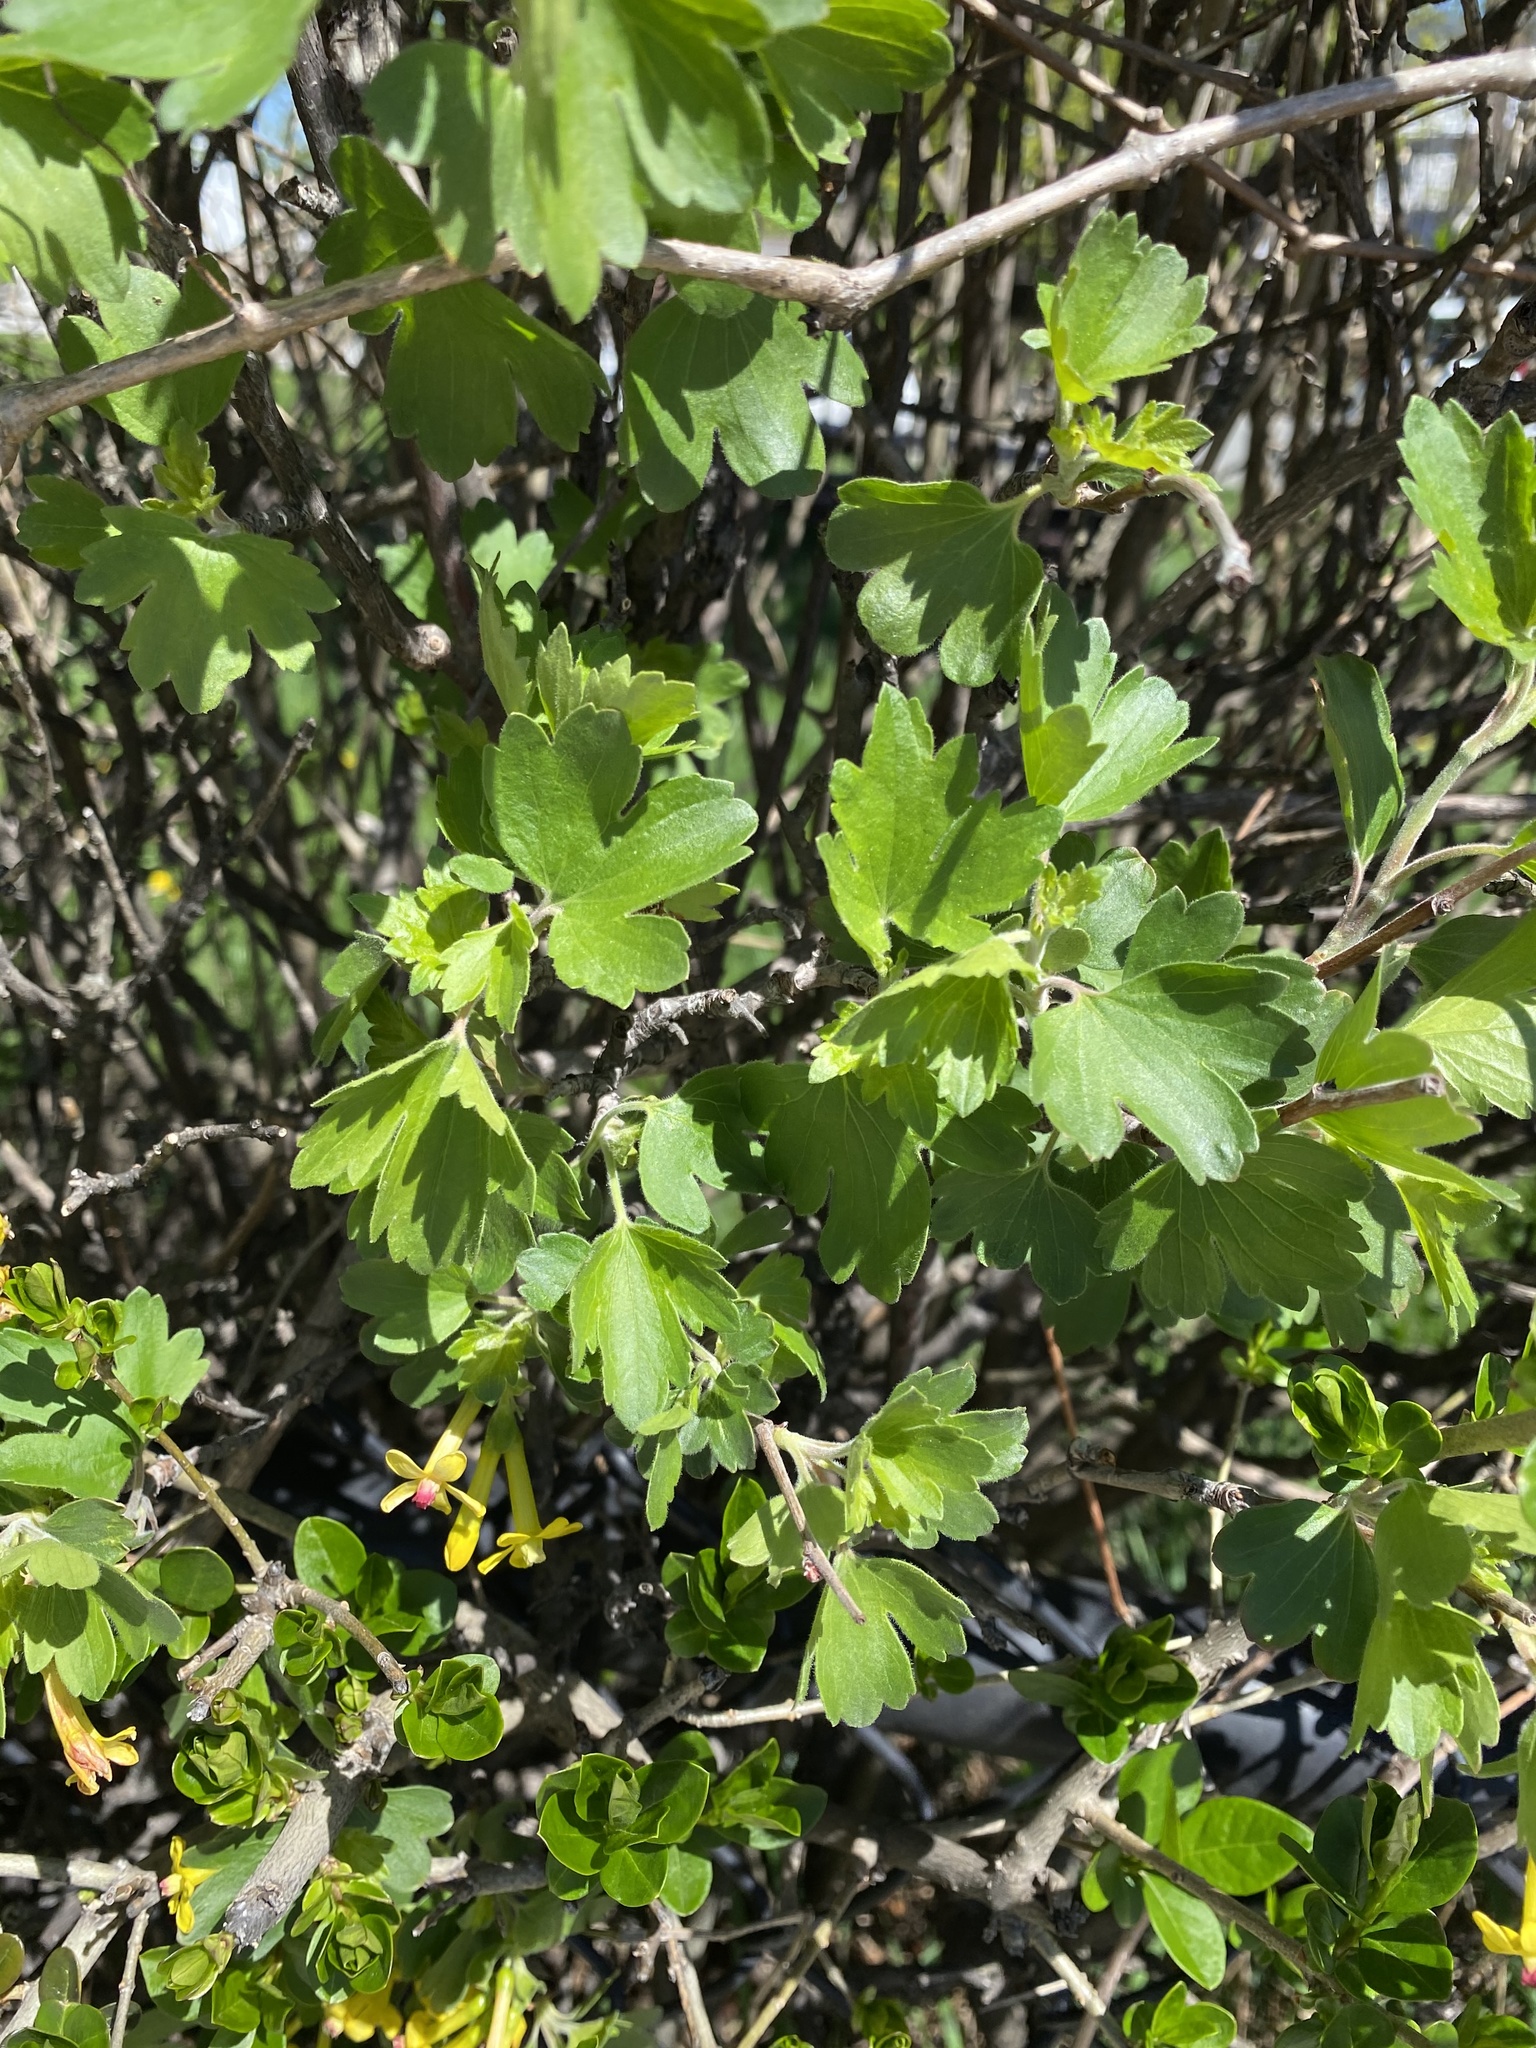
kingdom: Plantae
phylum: Tracheophyta
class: Magnoliopsida
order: Saxifragales
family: Grossulariaceae
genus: Ribes
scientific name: Ribes aureum
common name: Golden currant
